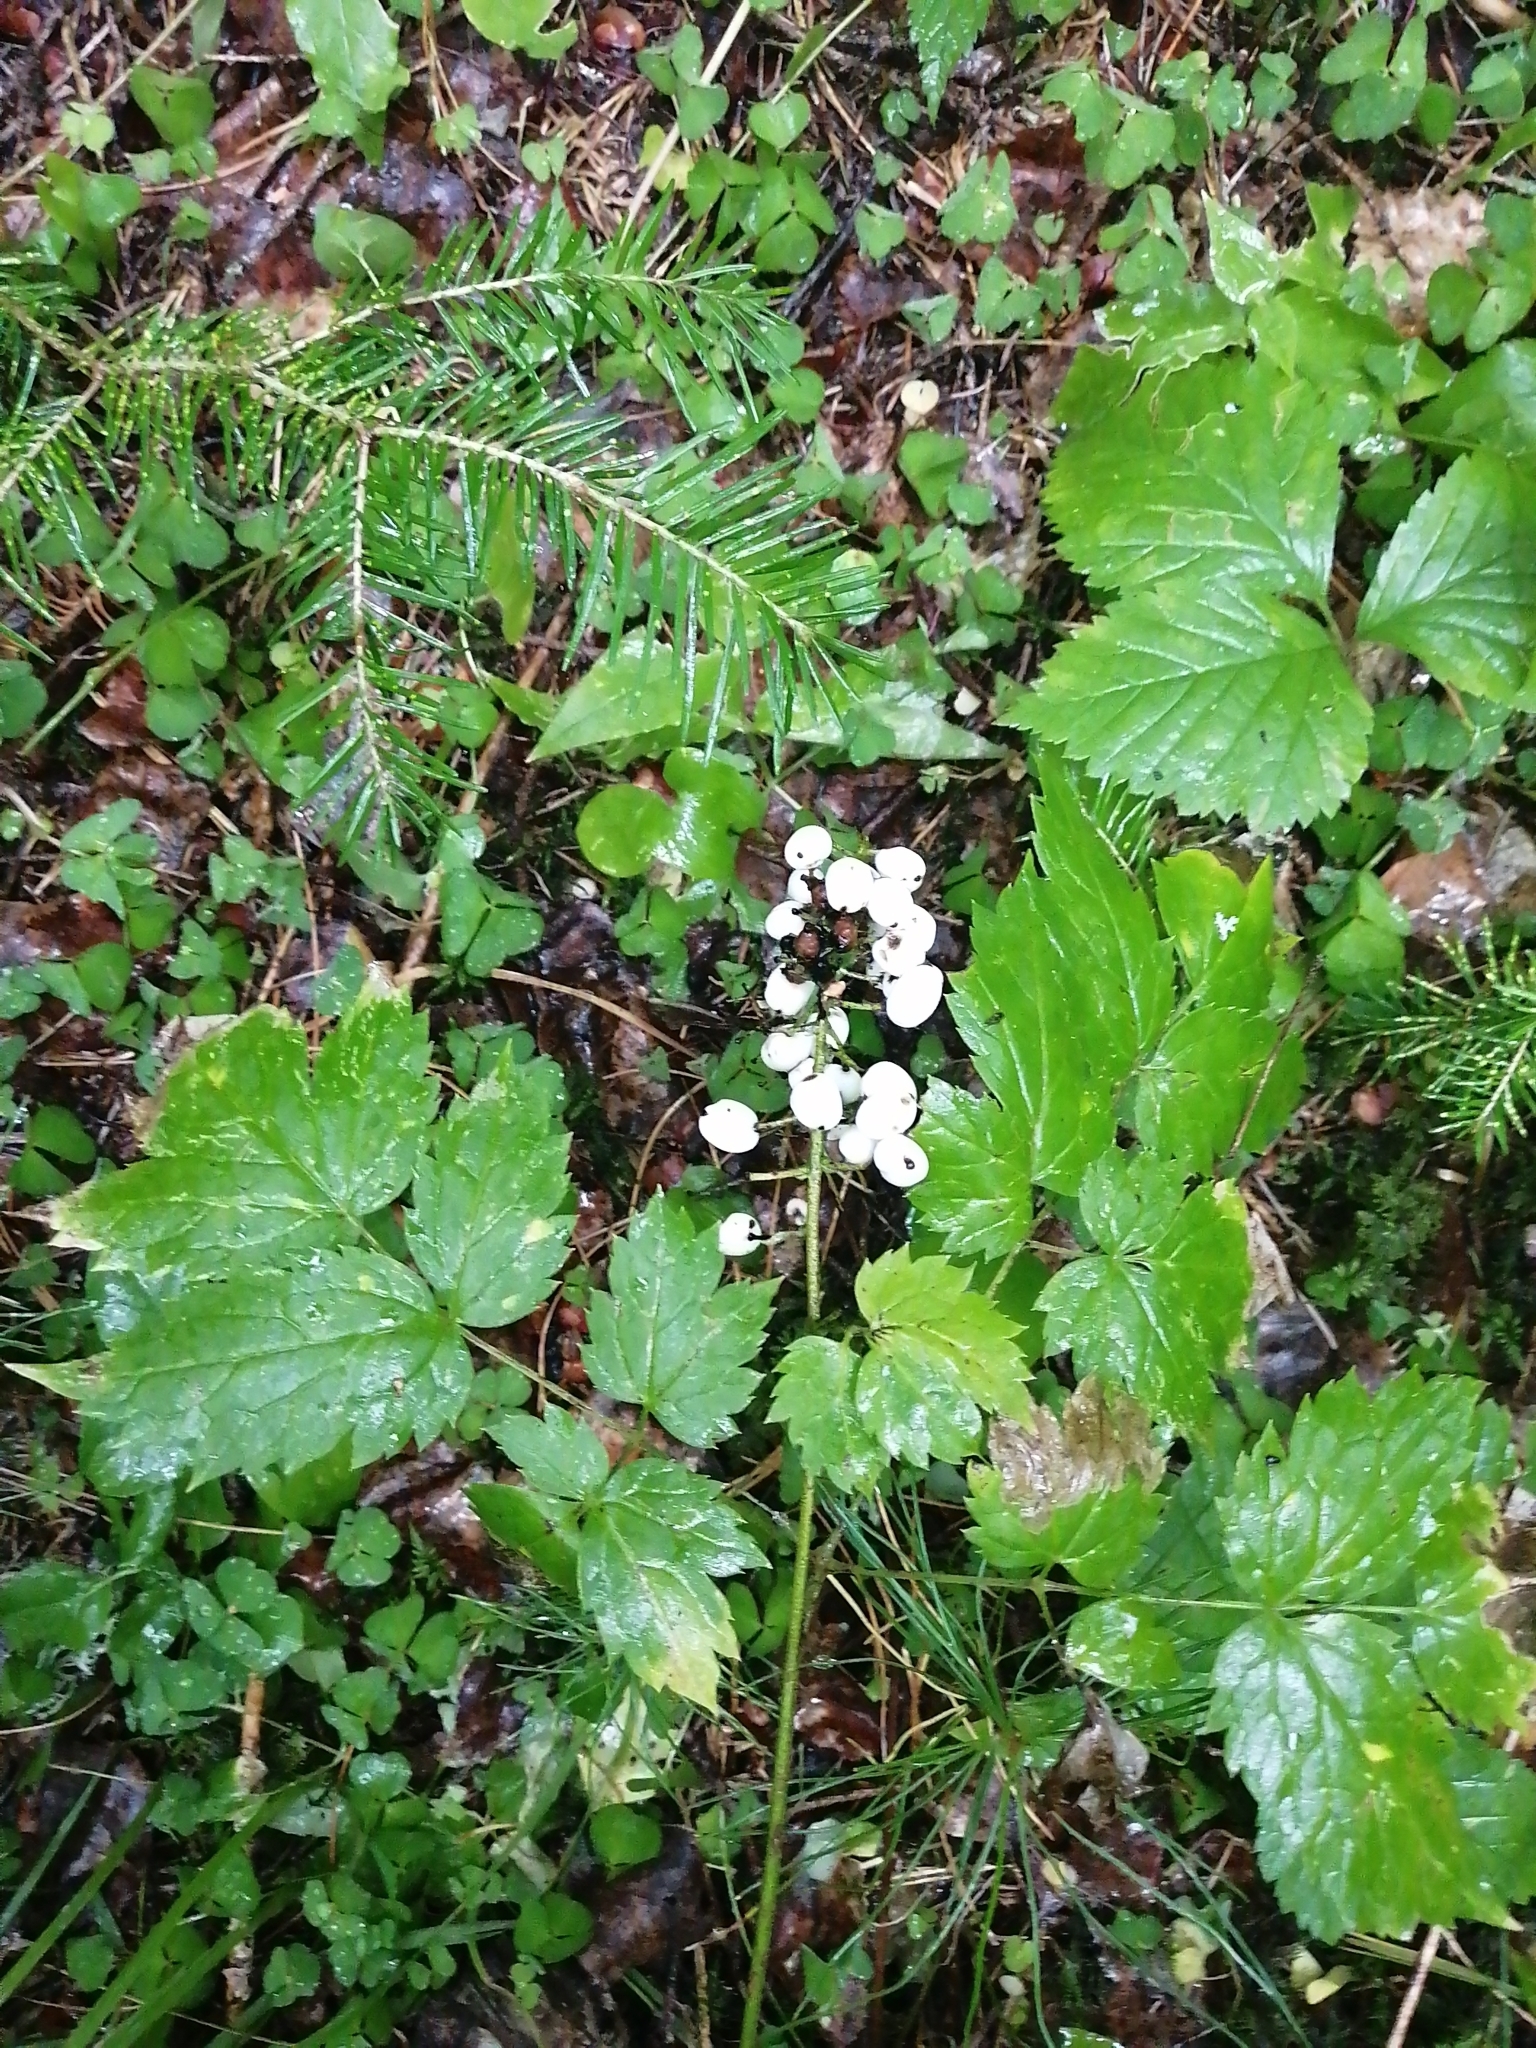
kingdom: Plantae
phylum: Tracheophyta
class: Magnoliopsida
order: Ranunculales
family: Ranunculaceae
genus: Actaea
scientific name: Actaea erythrocarpa
